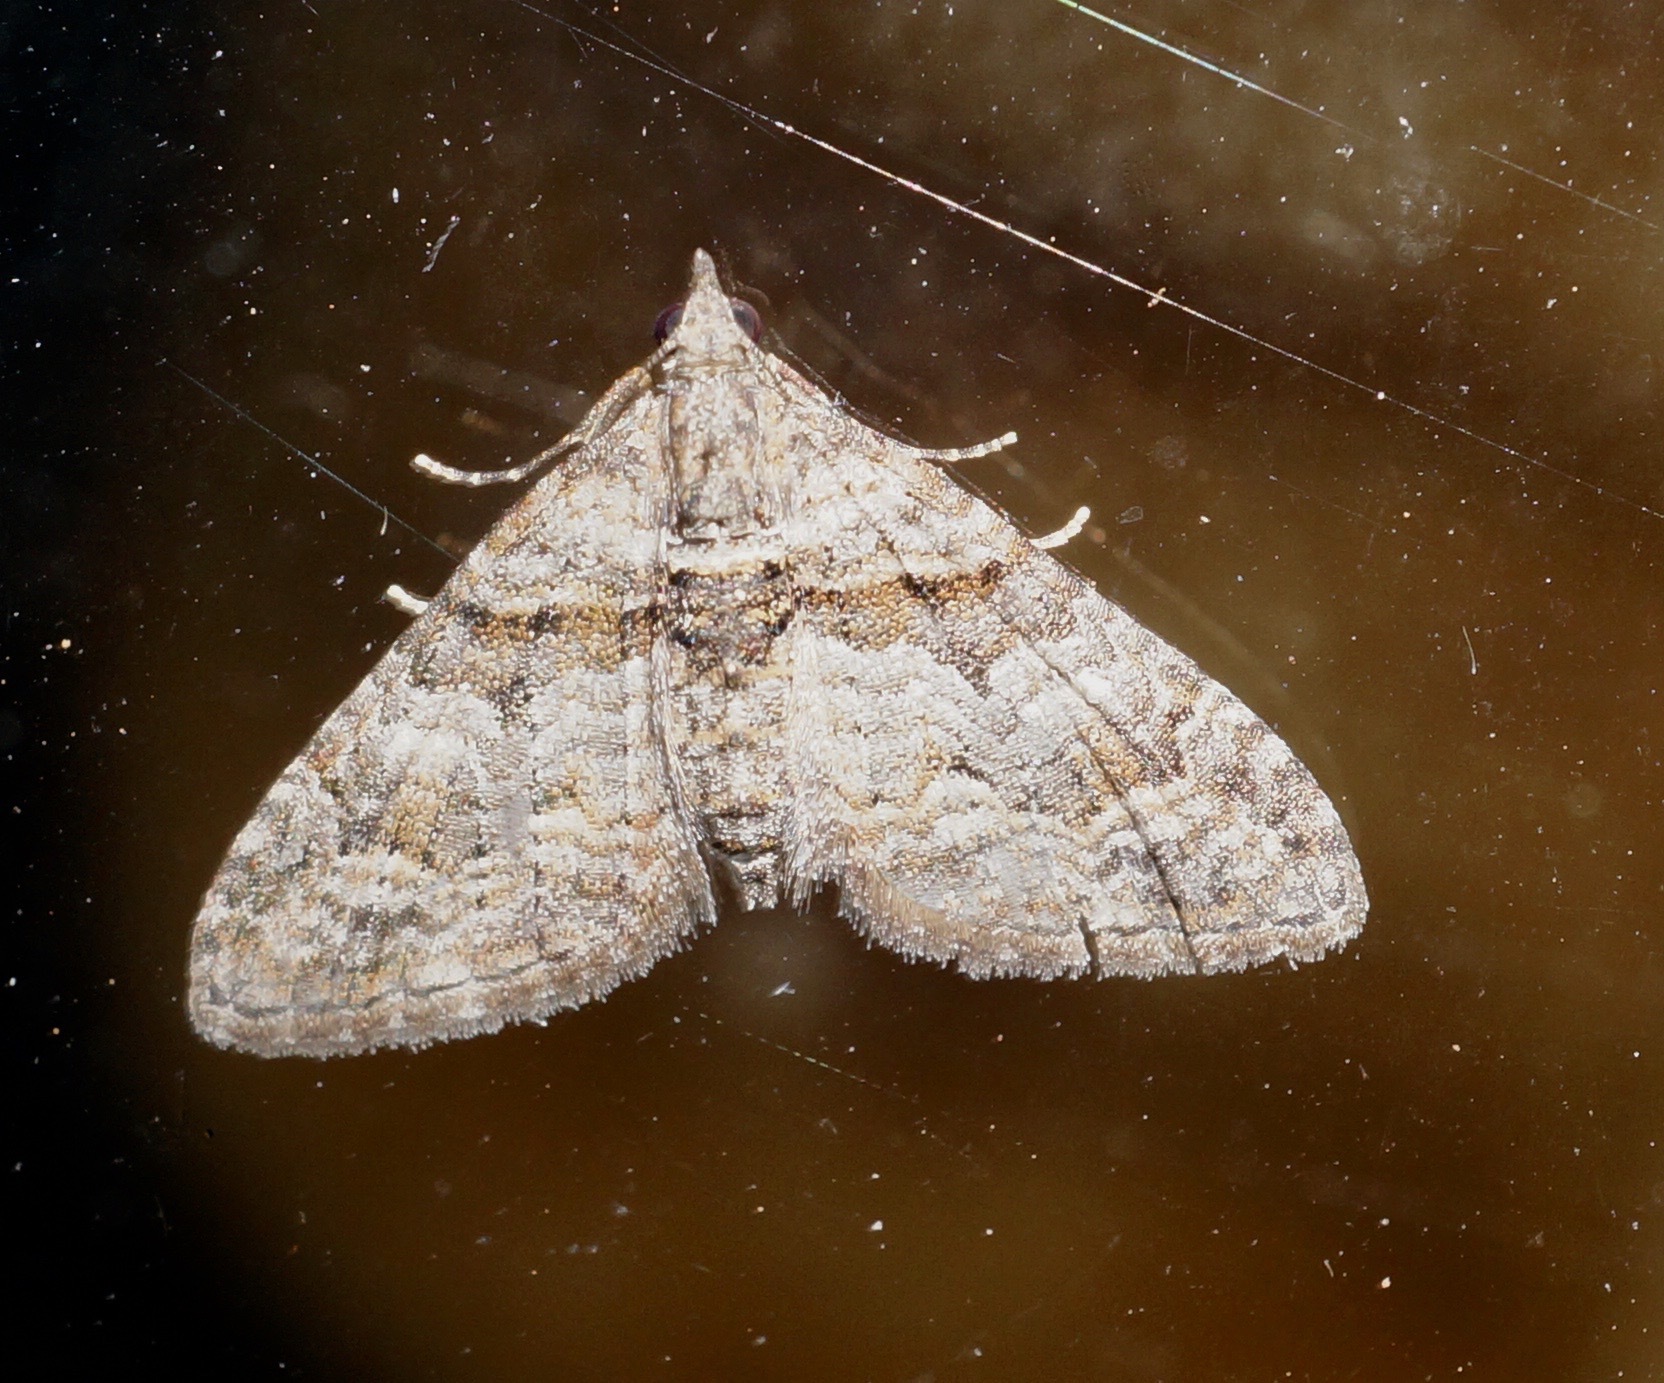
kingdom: Animalia
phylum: Arthropoda
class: Insecta
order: Lepidoptera
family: Geometridae
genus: Phrissogonus
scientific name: Phrissogonus laticostata
